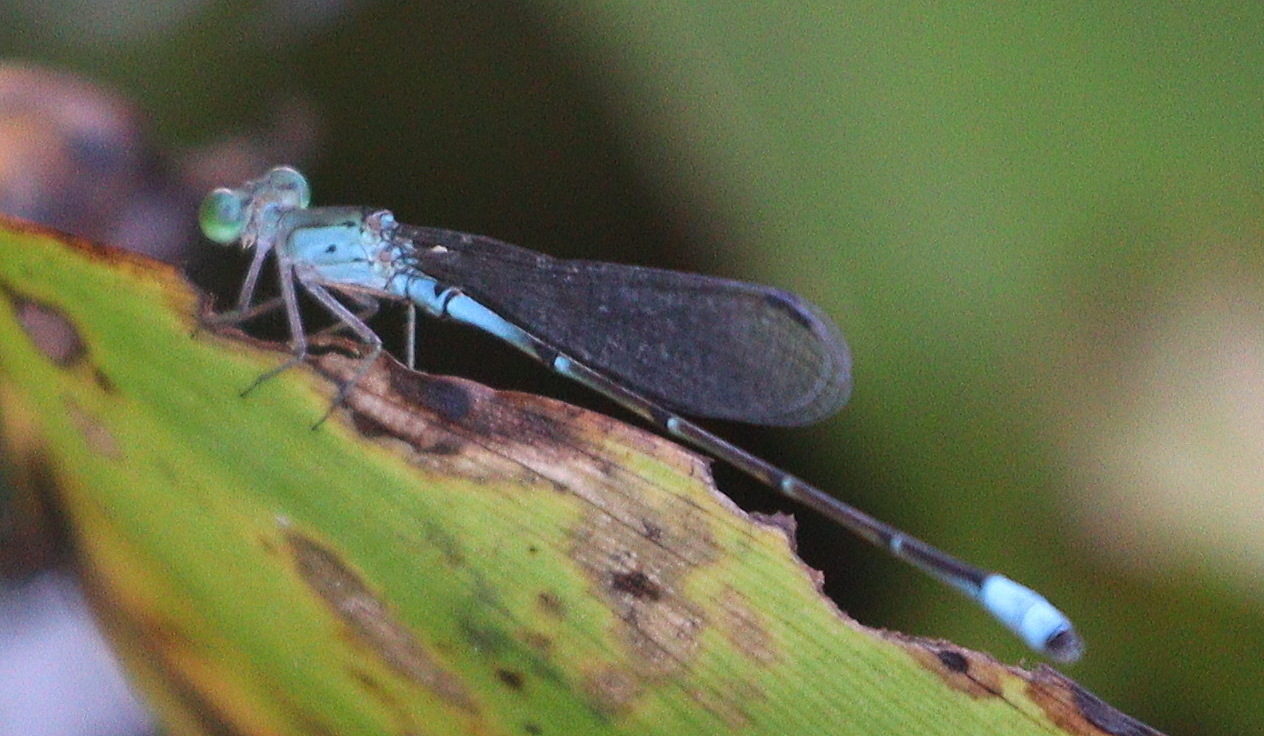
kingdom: Animalia
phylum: Arthropoda
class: Insecta
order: Odonata
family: Coenagrionidae
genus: Telebasis
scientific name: Telebasis obsoleta
